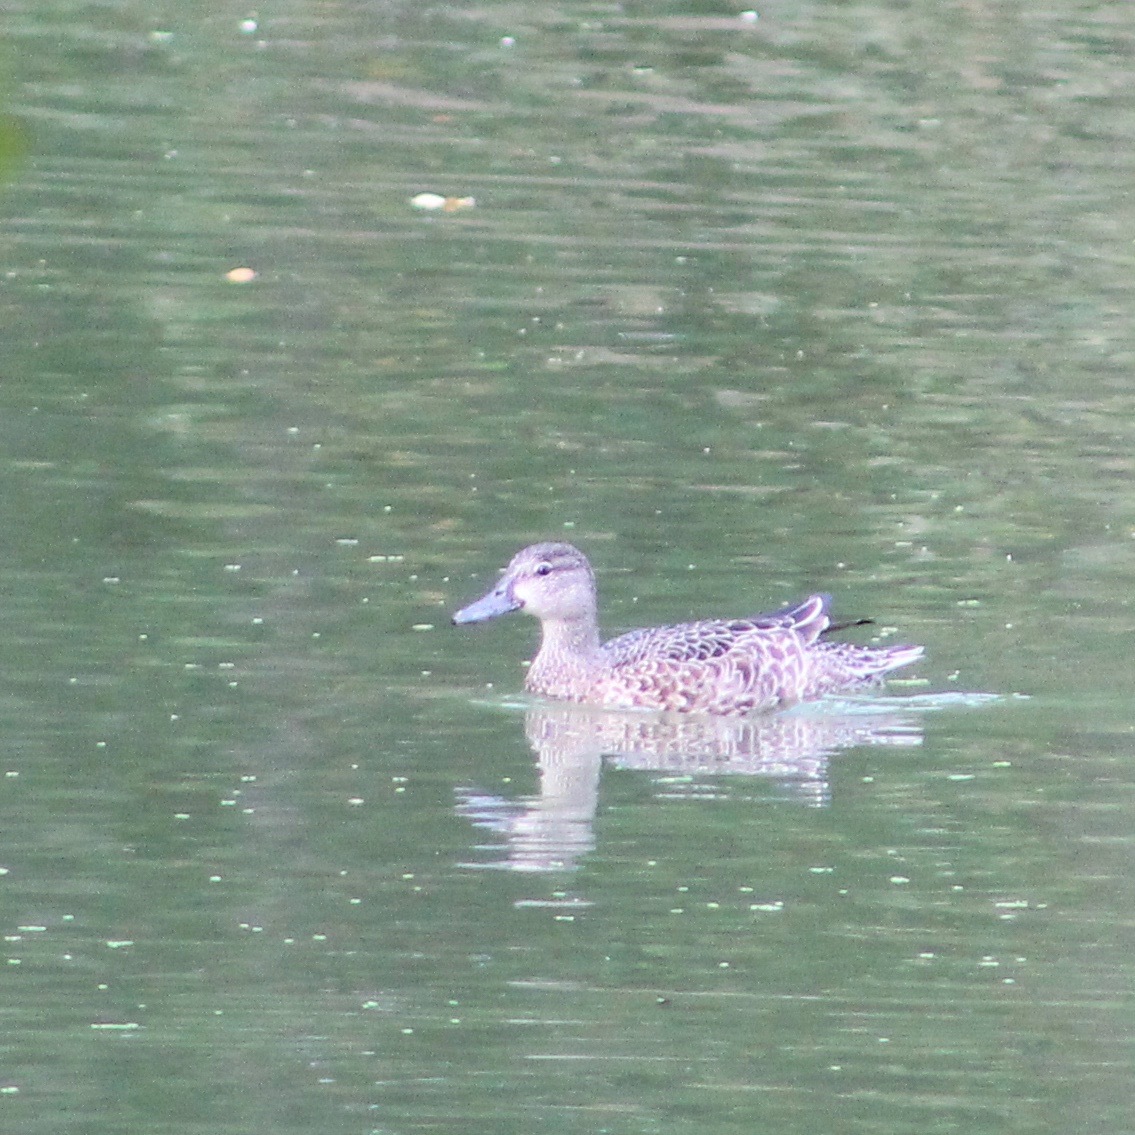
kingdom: Animalia
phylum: Chordata
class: Aves
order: Anseriformes
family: Anatidae
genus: Spatula
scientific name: Spatula discors
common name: Blue-winged teal
